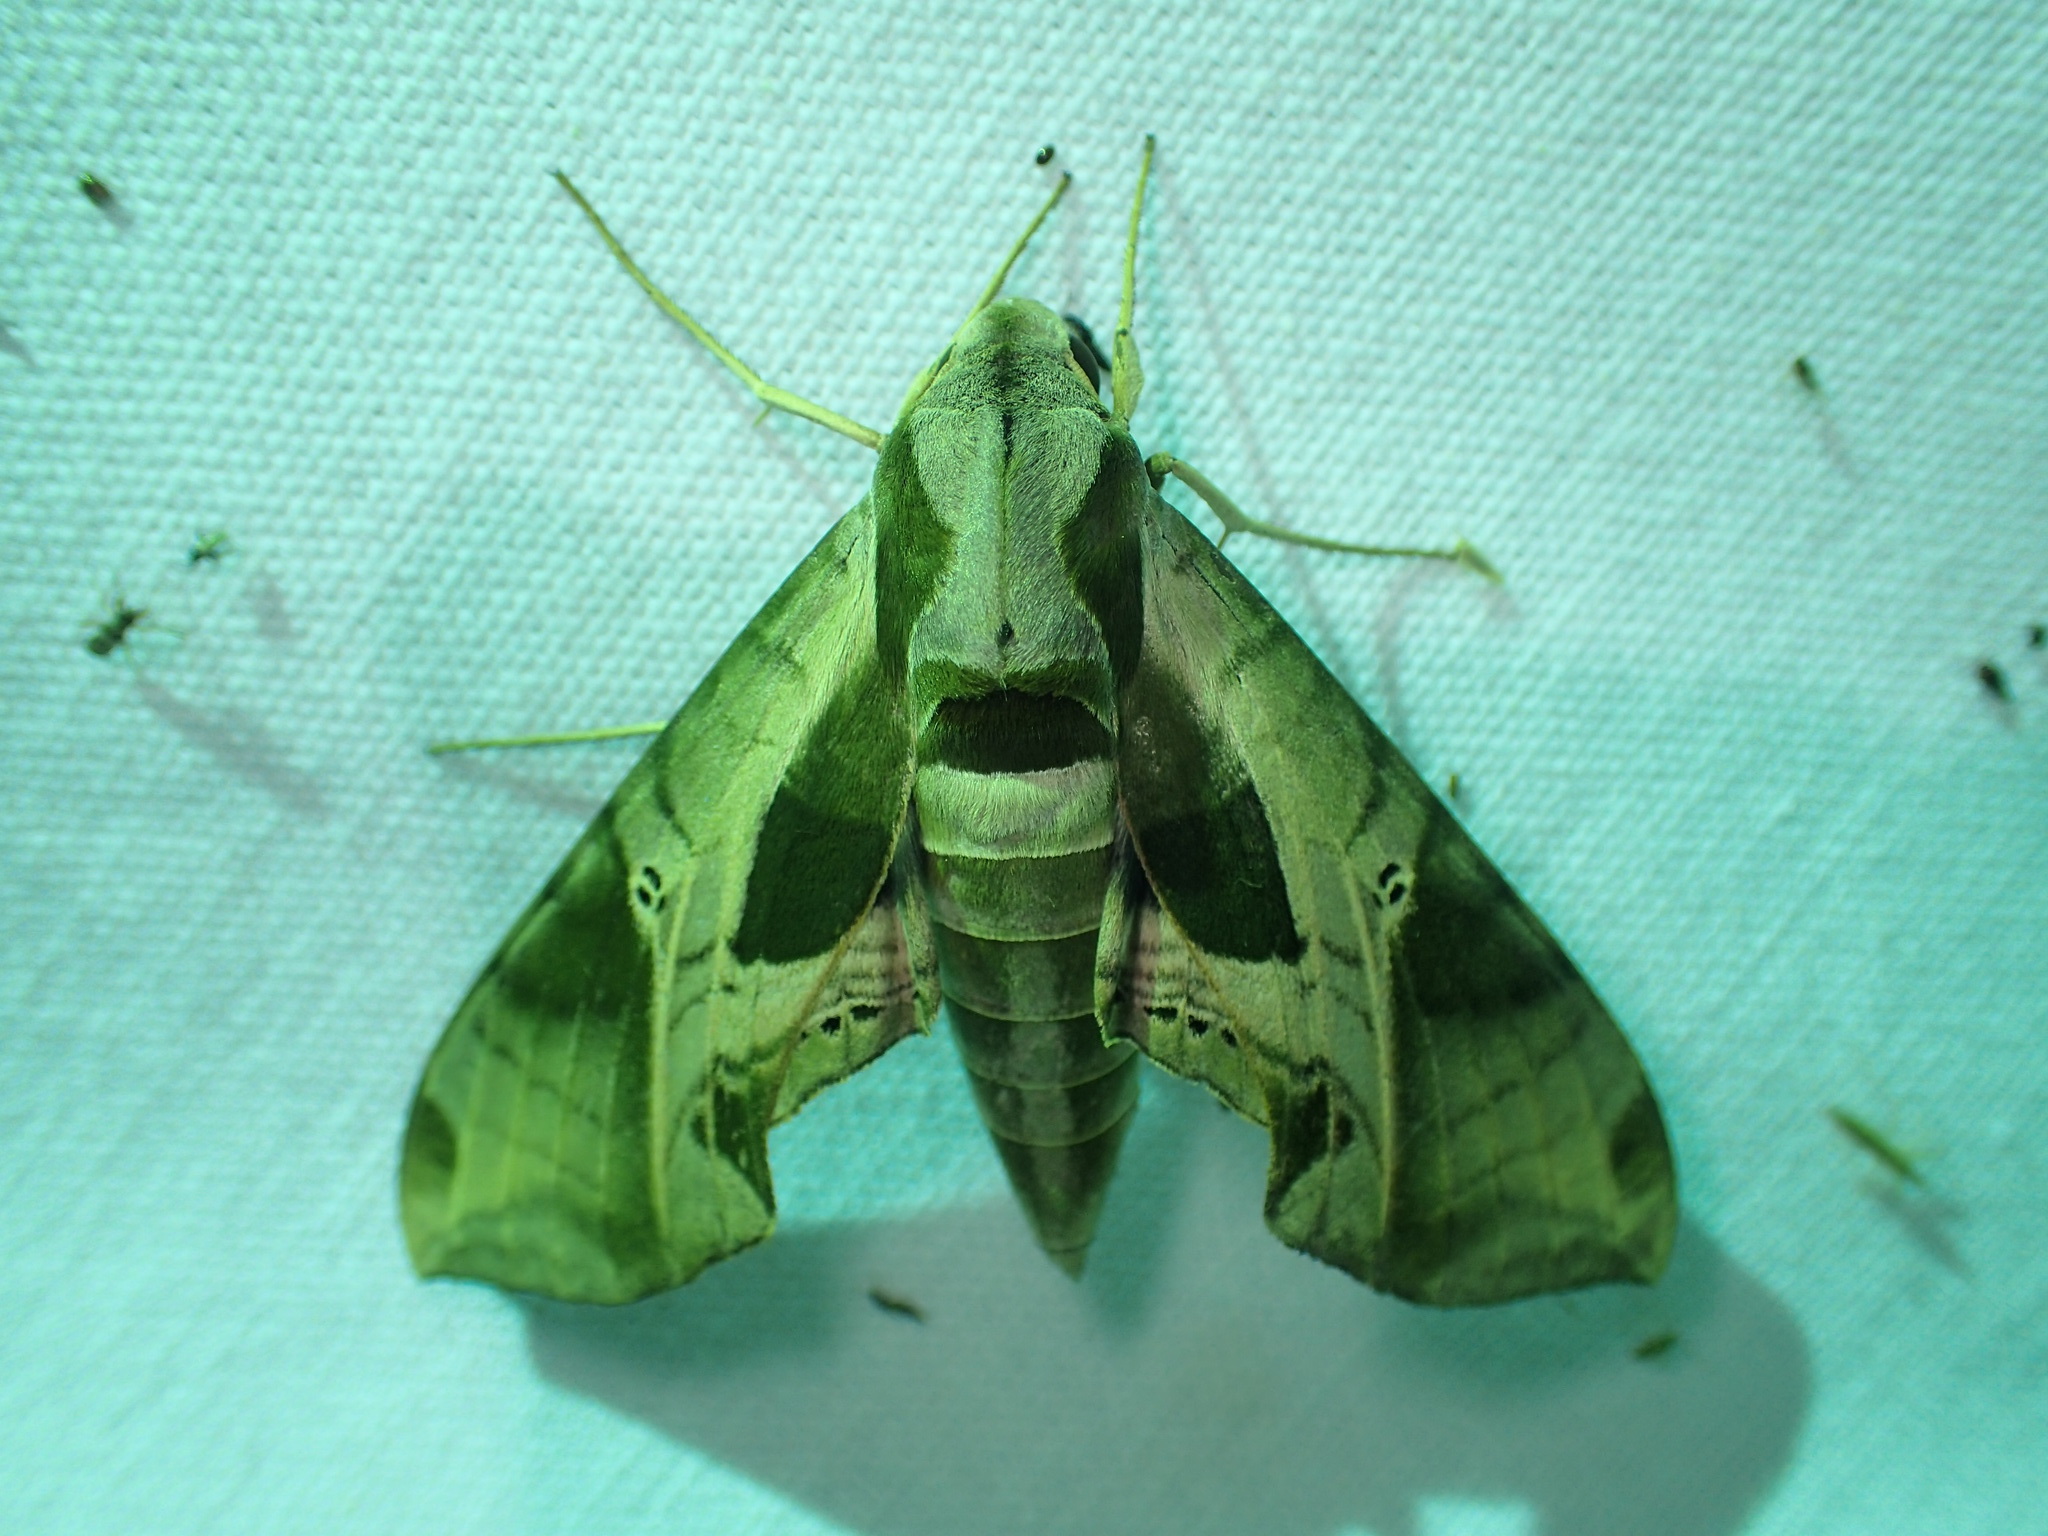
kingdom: Animalia
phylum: Arthropoda
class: Insecta
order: Lepidoptera
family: Sphingidae
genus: Eumorpha
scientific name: Eumorpha pandorus
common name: Pandora sphinx
